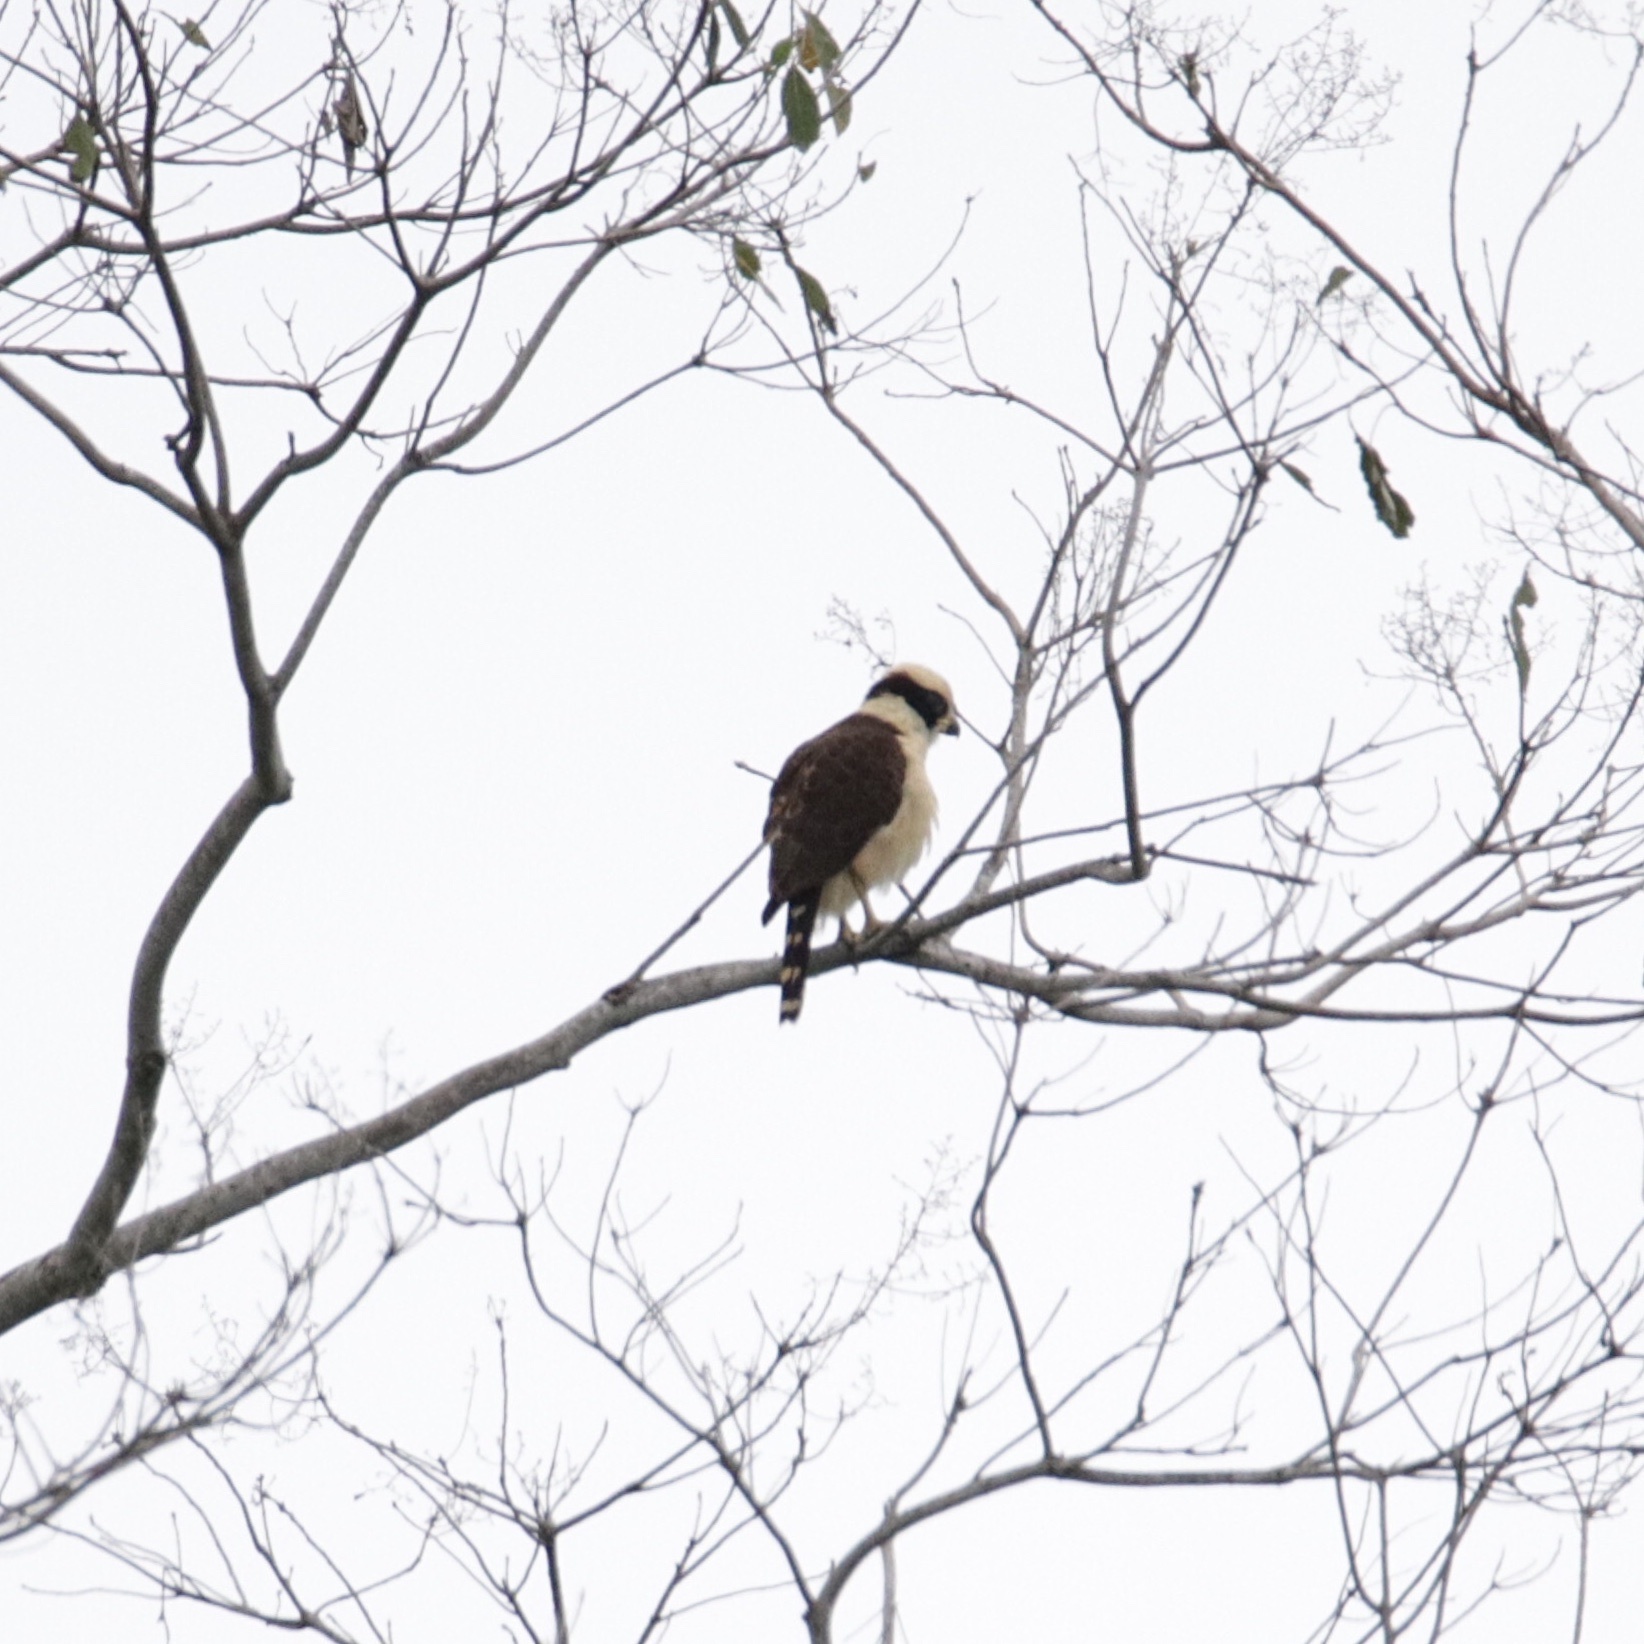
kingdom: Animalia
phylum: Chordata
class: Aves
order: Falconiformes
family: Falconidae
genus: Herpetotheres
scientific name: Herpetotheres cachinnans
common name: Laughing falcon
